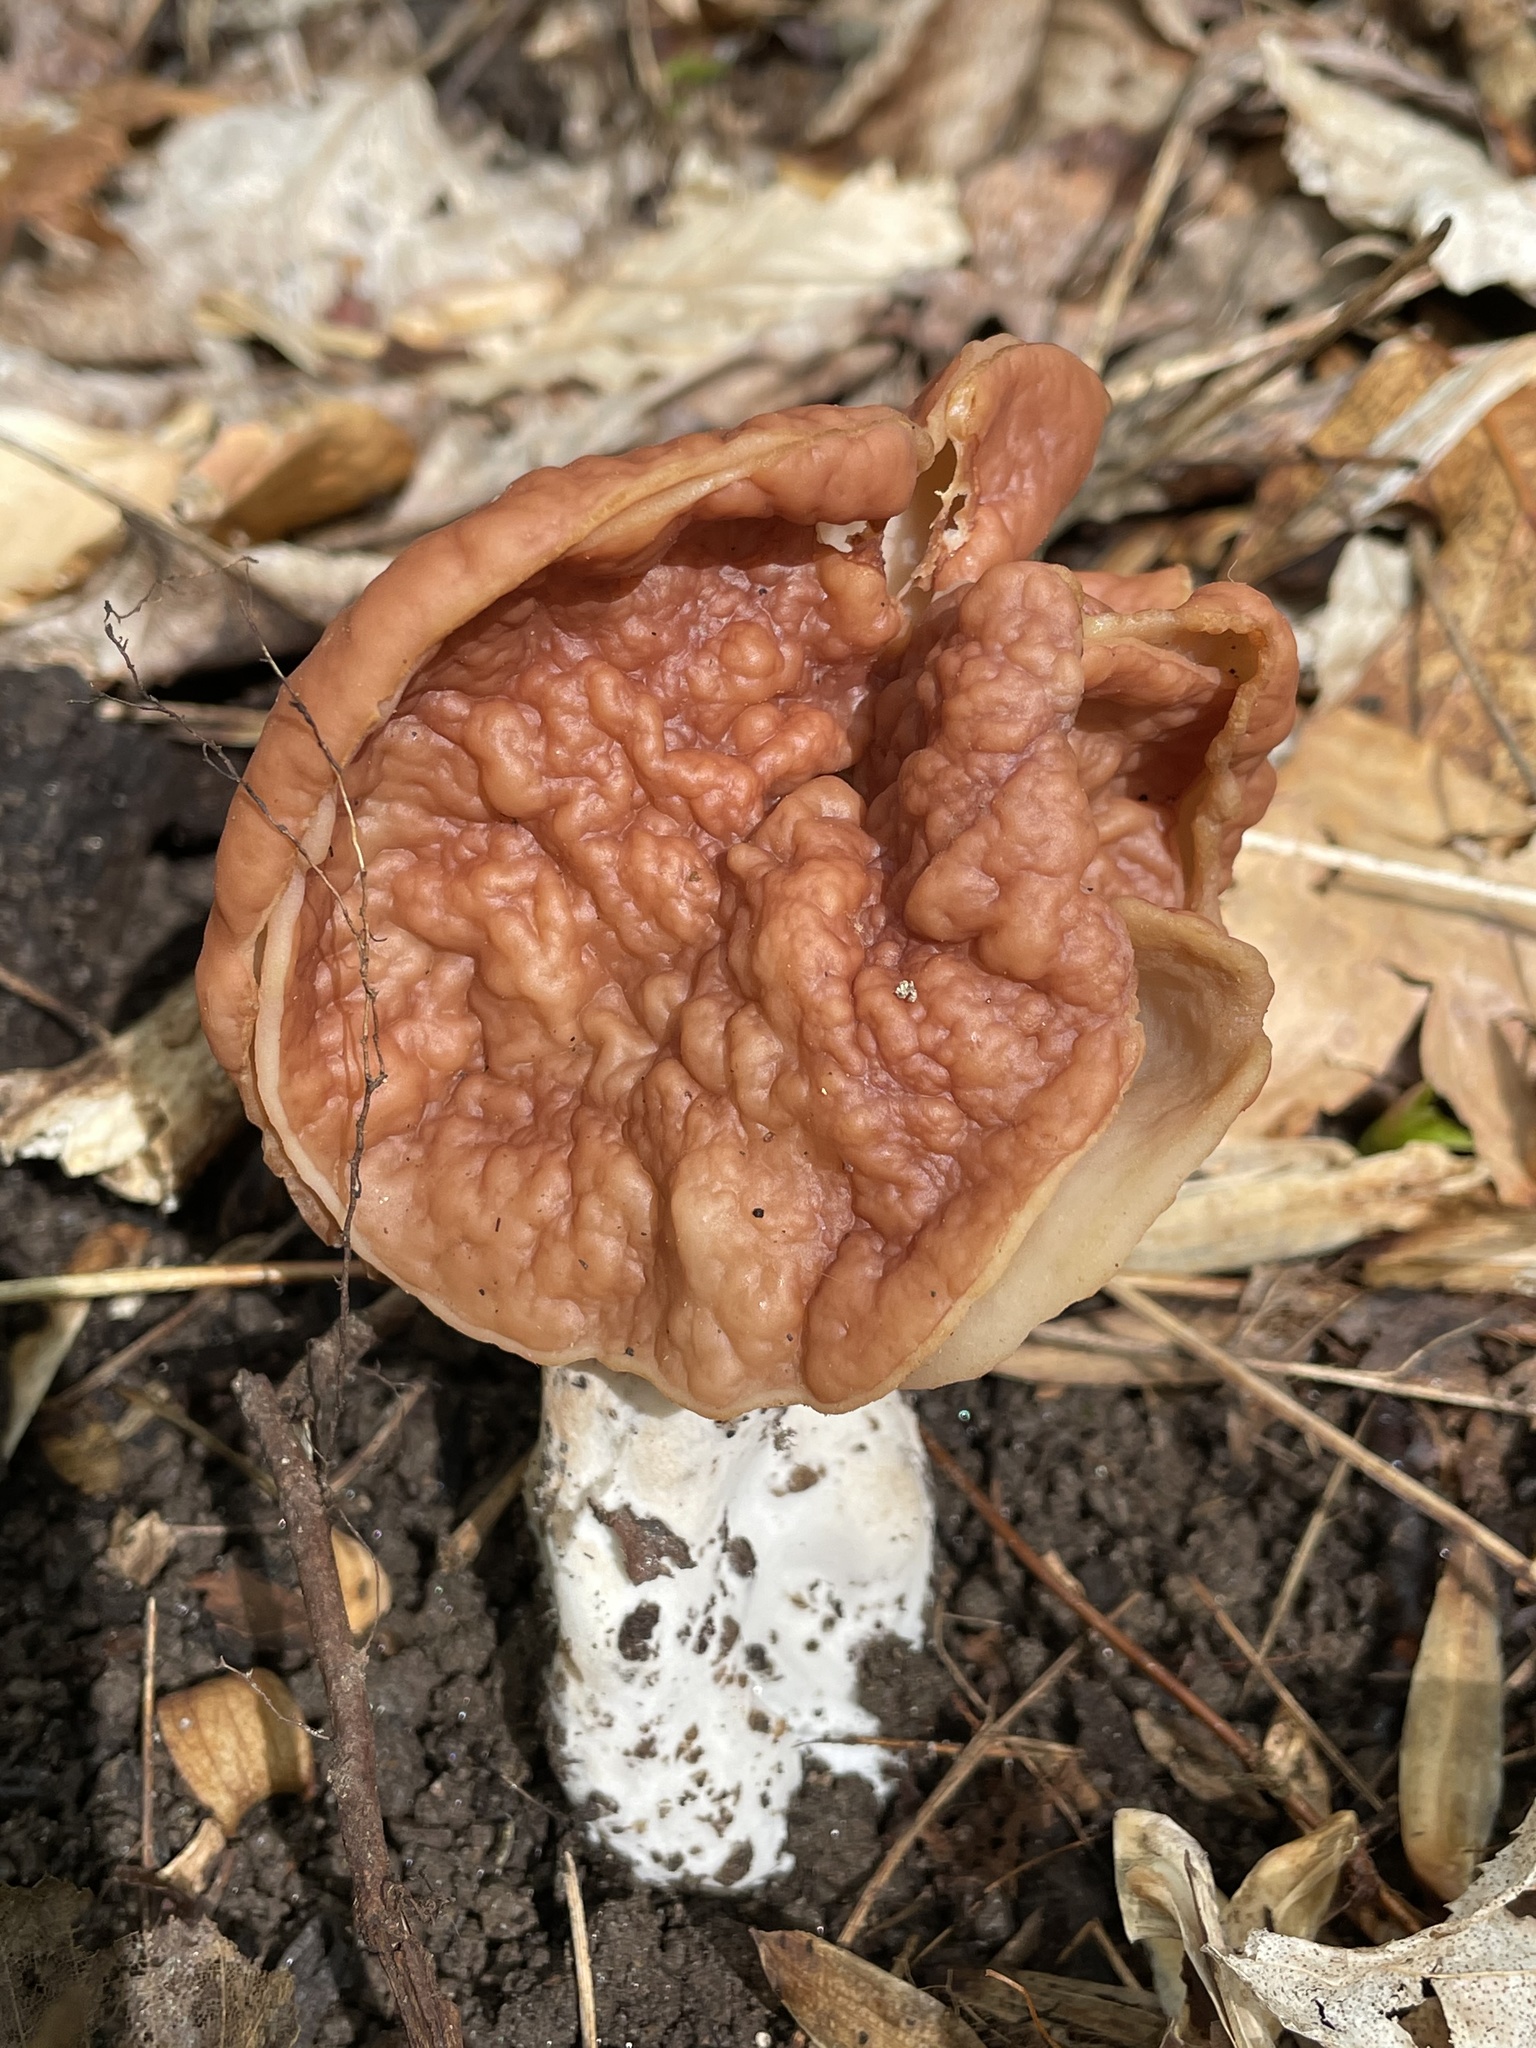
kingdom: Fungi
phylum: Ascomycota
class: Pezizomycetes
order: Pezizales
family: Discinaceae
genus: Discina
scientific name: Discina brunnea
